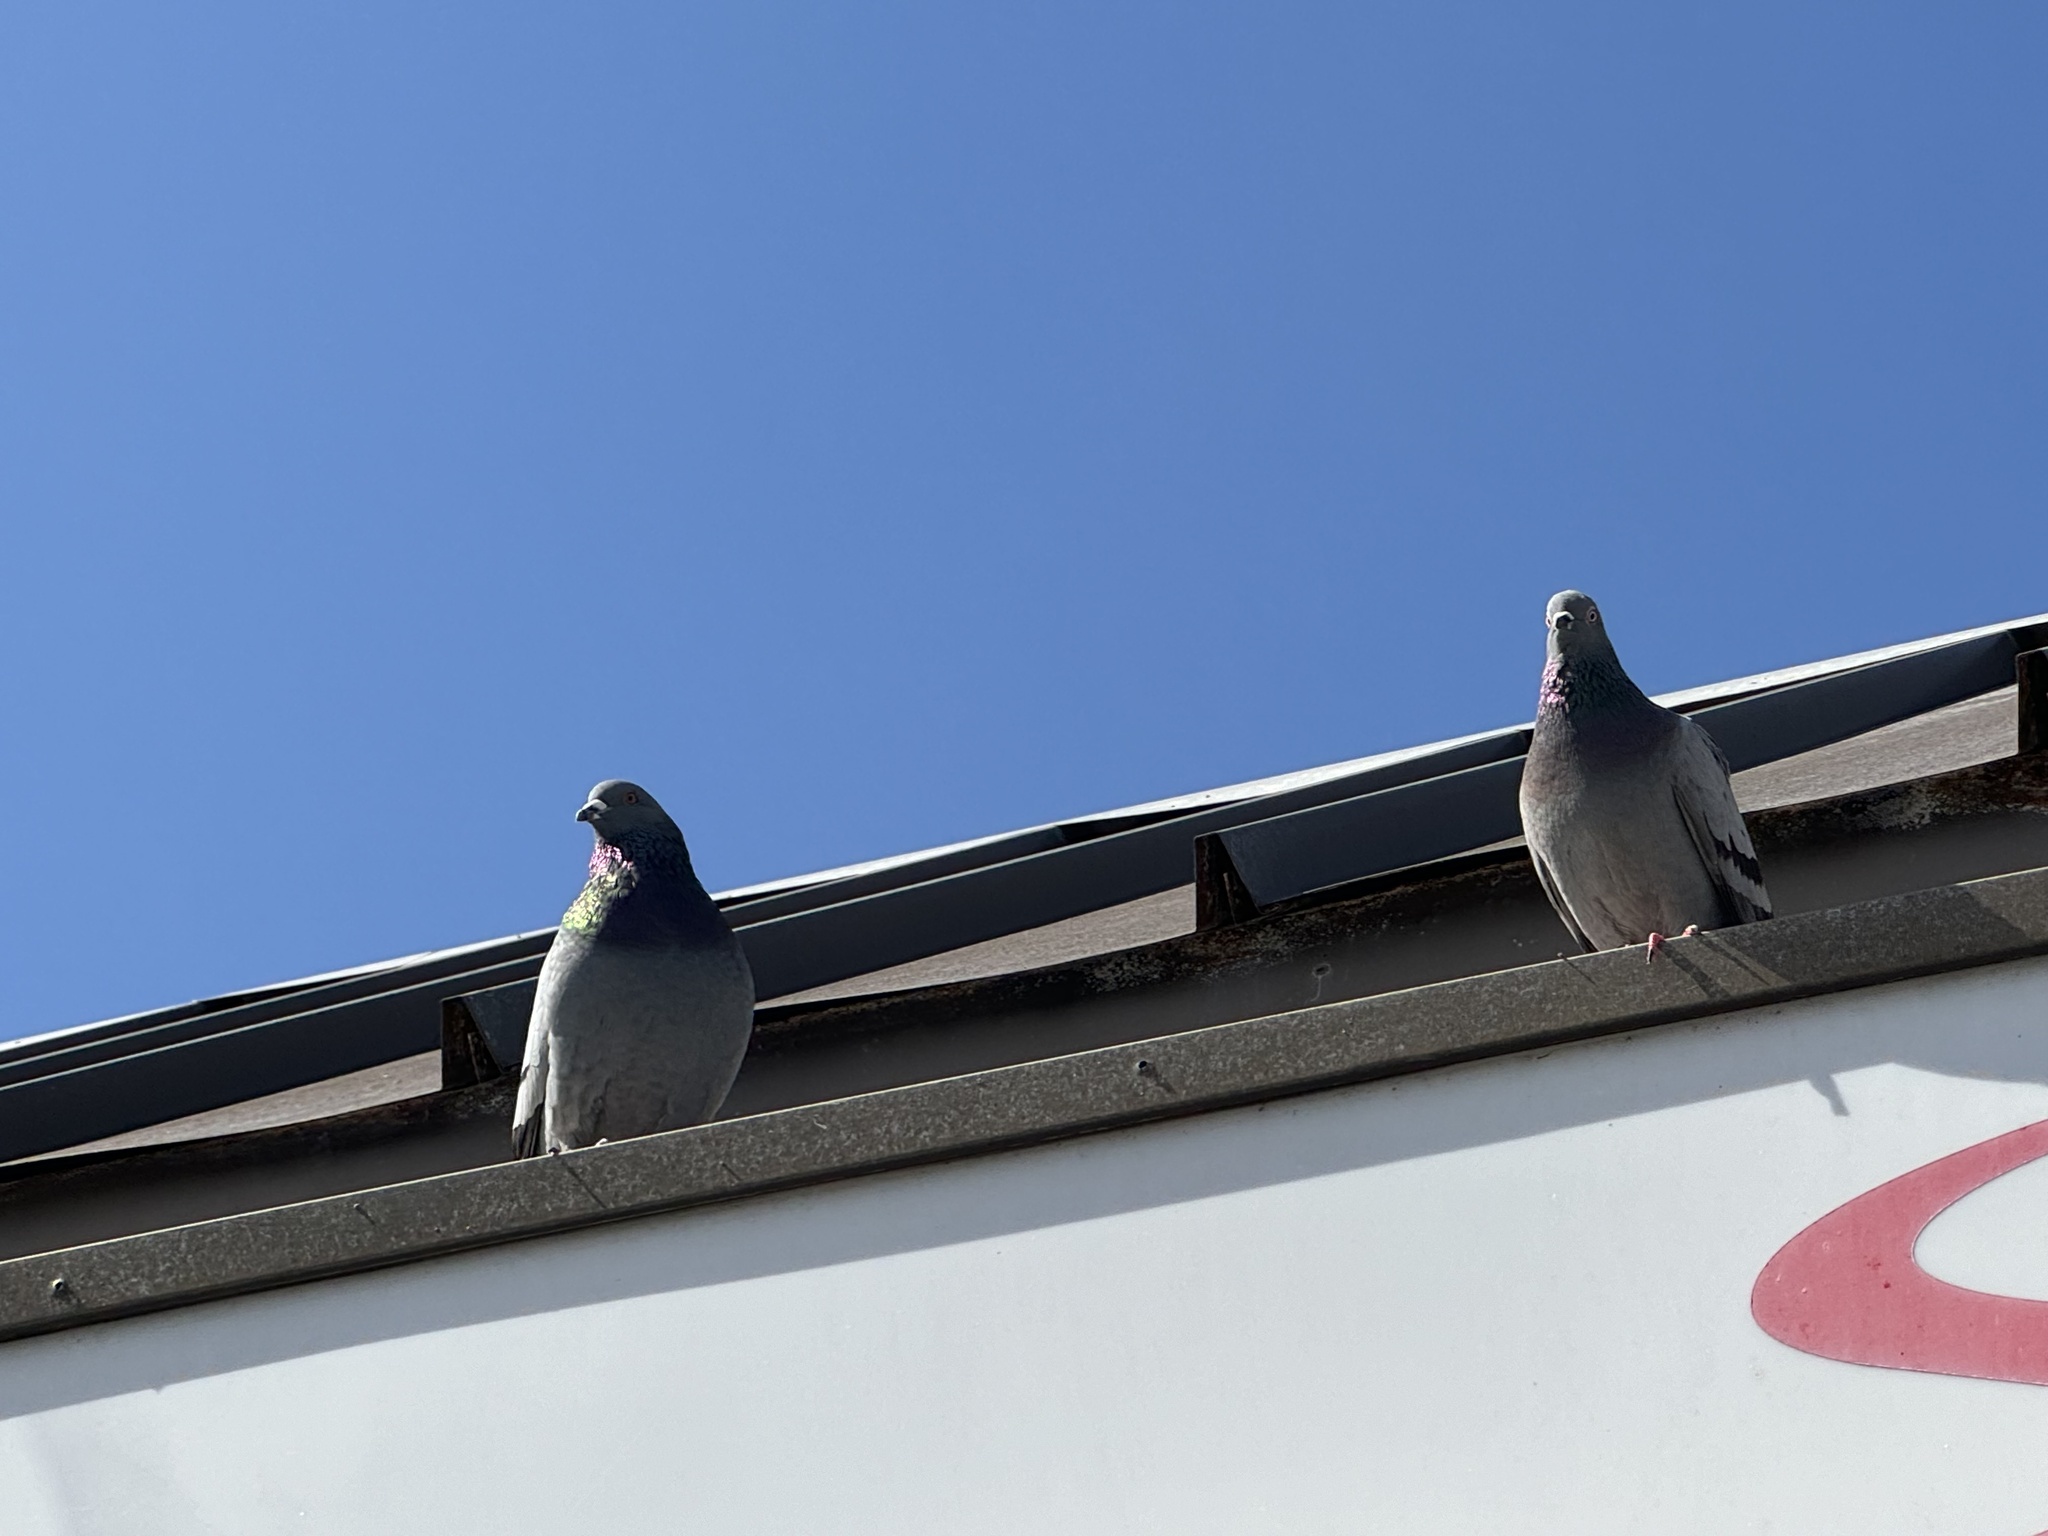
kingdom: Animalia
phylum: Chordata
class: Aves
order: Columbiformes
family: Columbidae
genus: Columba
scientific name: Columba livia
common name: Rock pigeon
